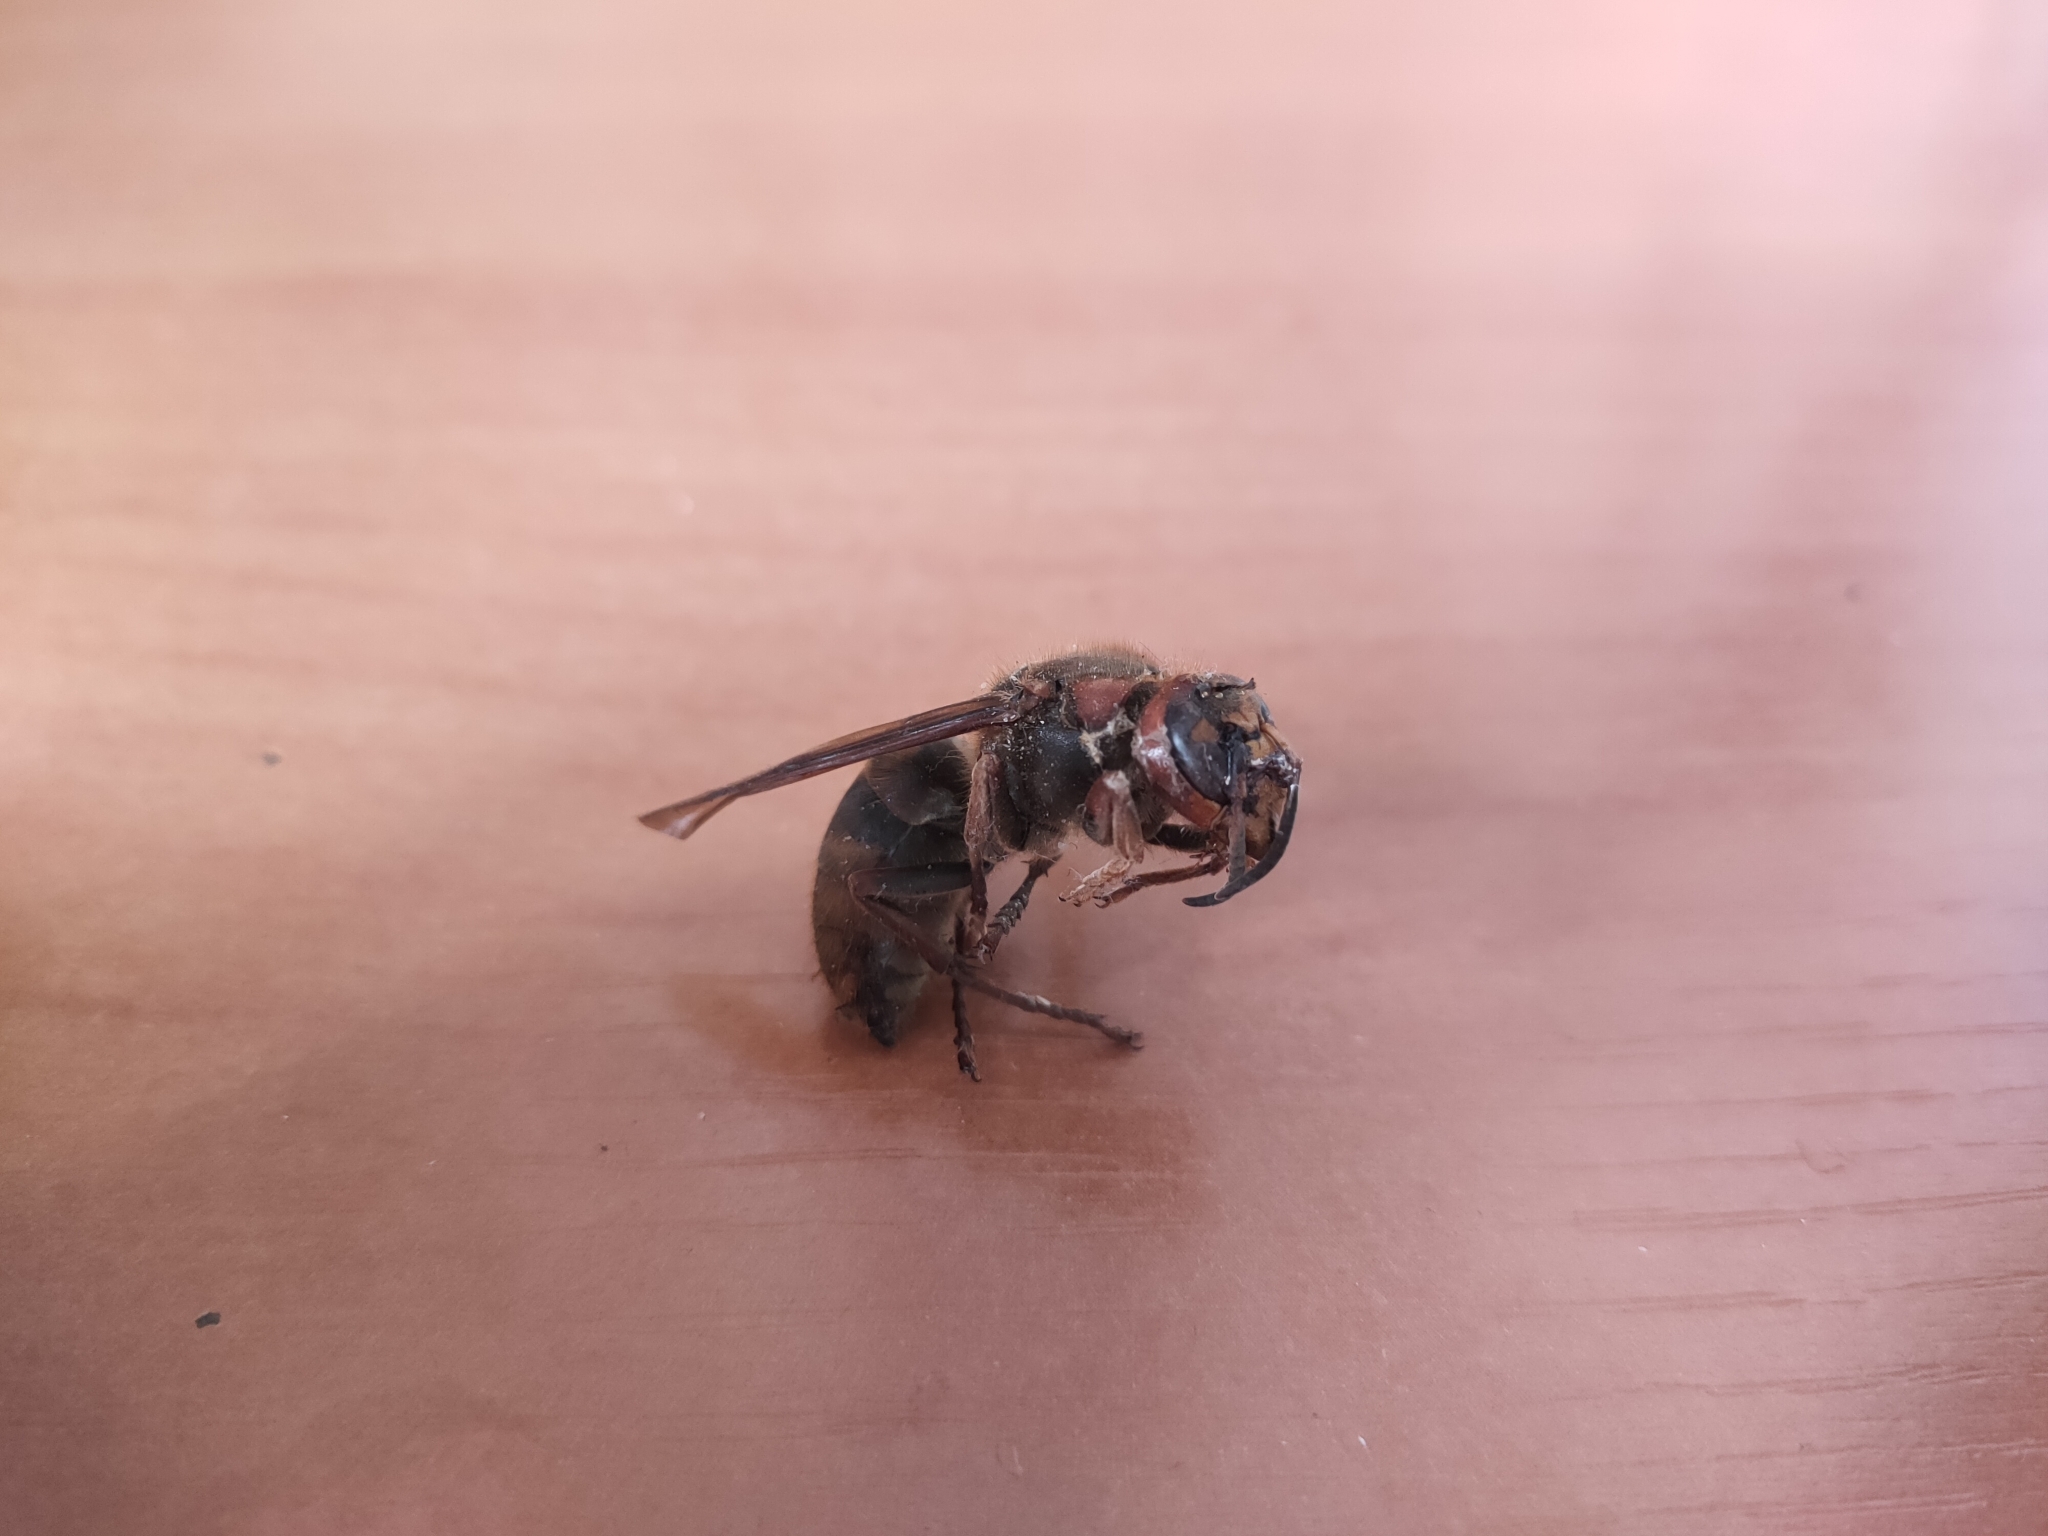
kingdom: Animalia
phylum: Arthropoda
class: Insecta
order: Hymenoptera
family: Vespidae
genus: Vespa
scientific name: Vespa crabro
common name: Hornet
